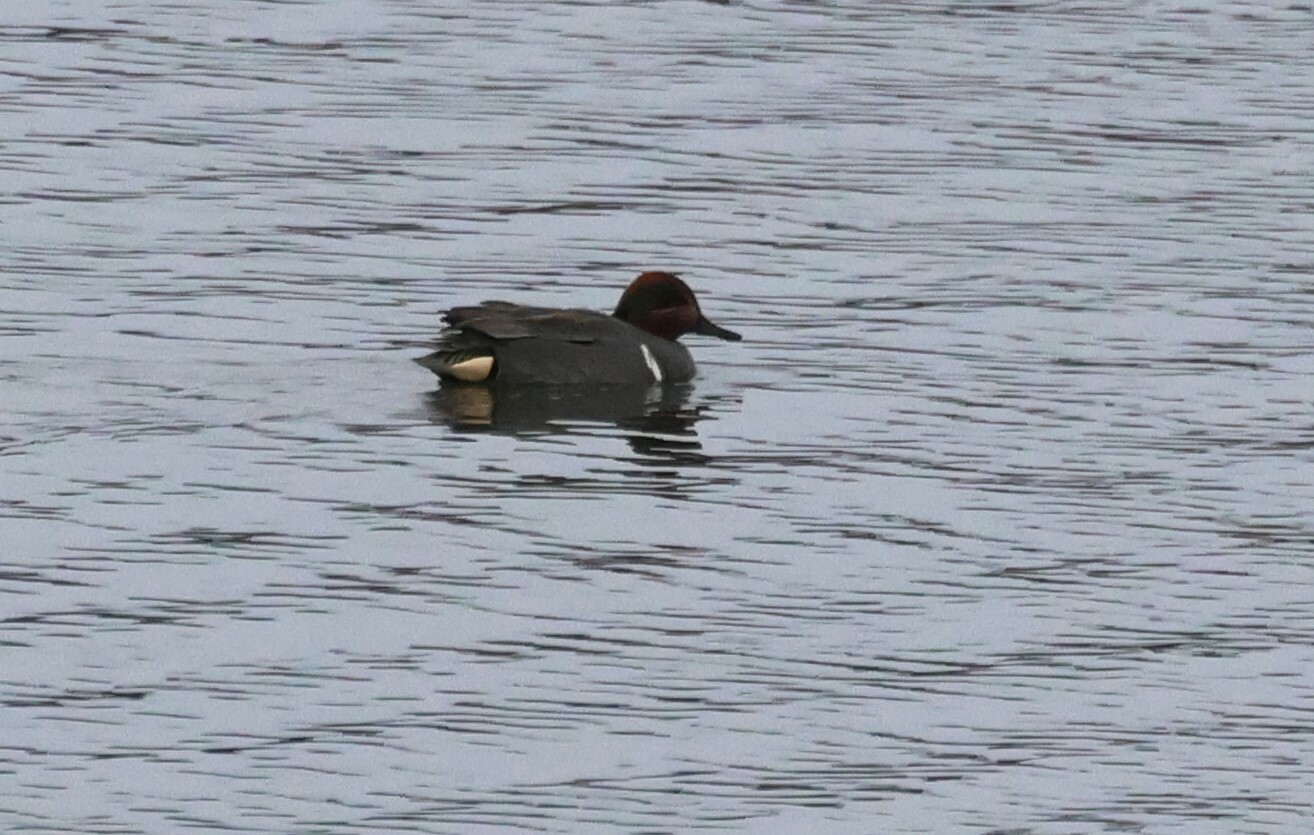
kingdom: Animalia
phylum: Chordata
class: Aves
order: Anseriformes
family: Anatidae
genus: Anas
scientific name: Anas carolinensis
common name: Green-winged teal
